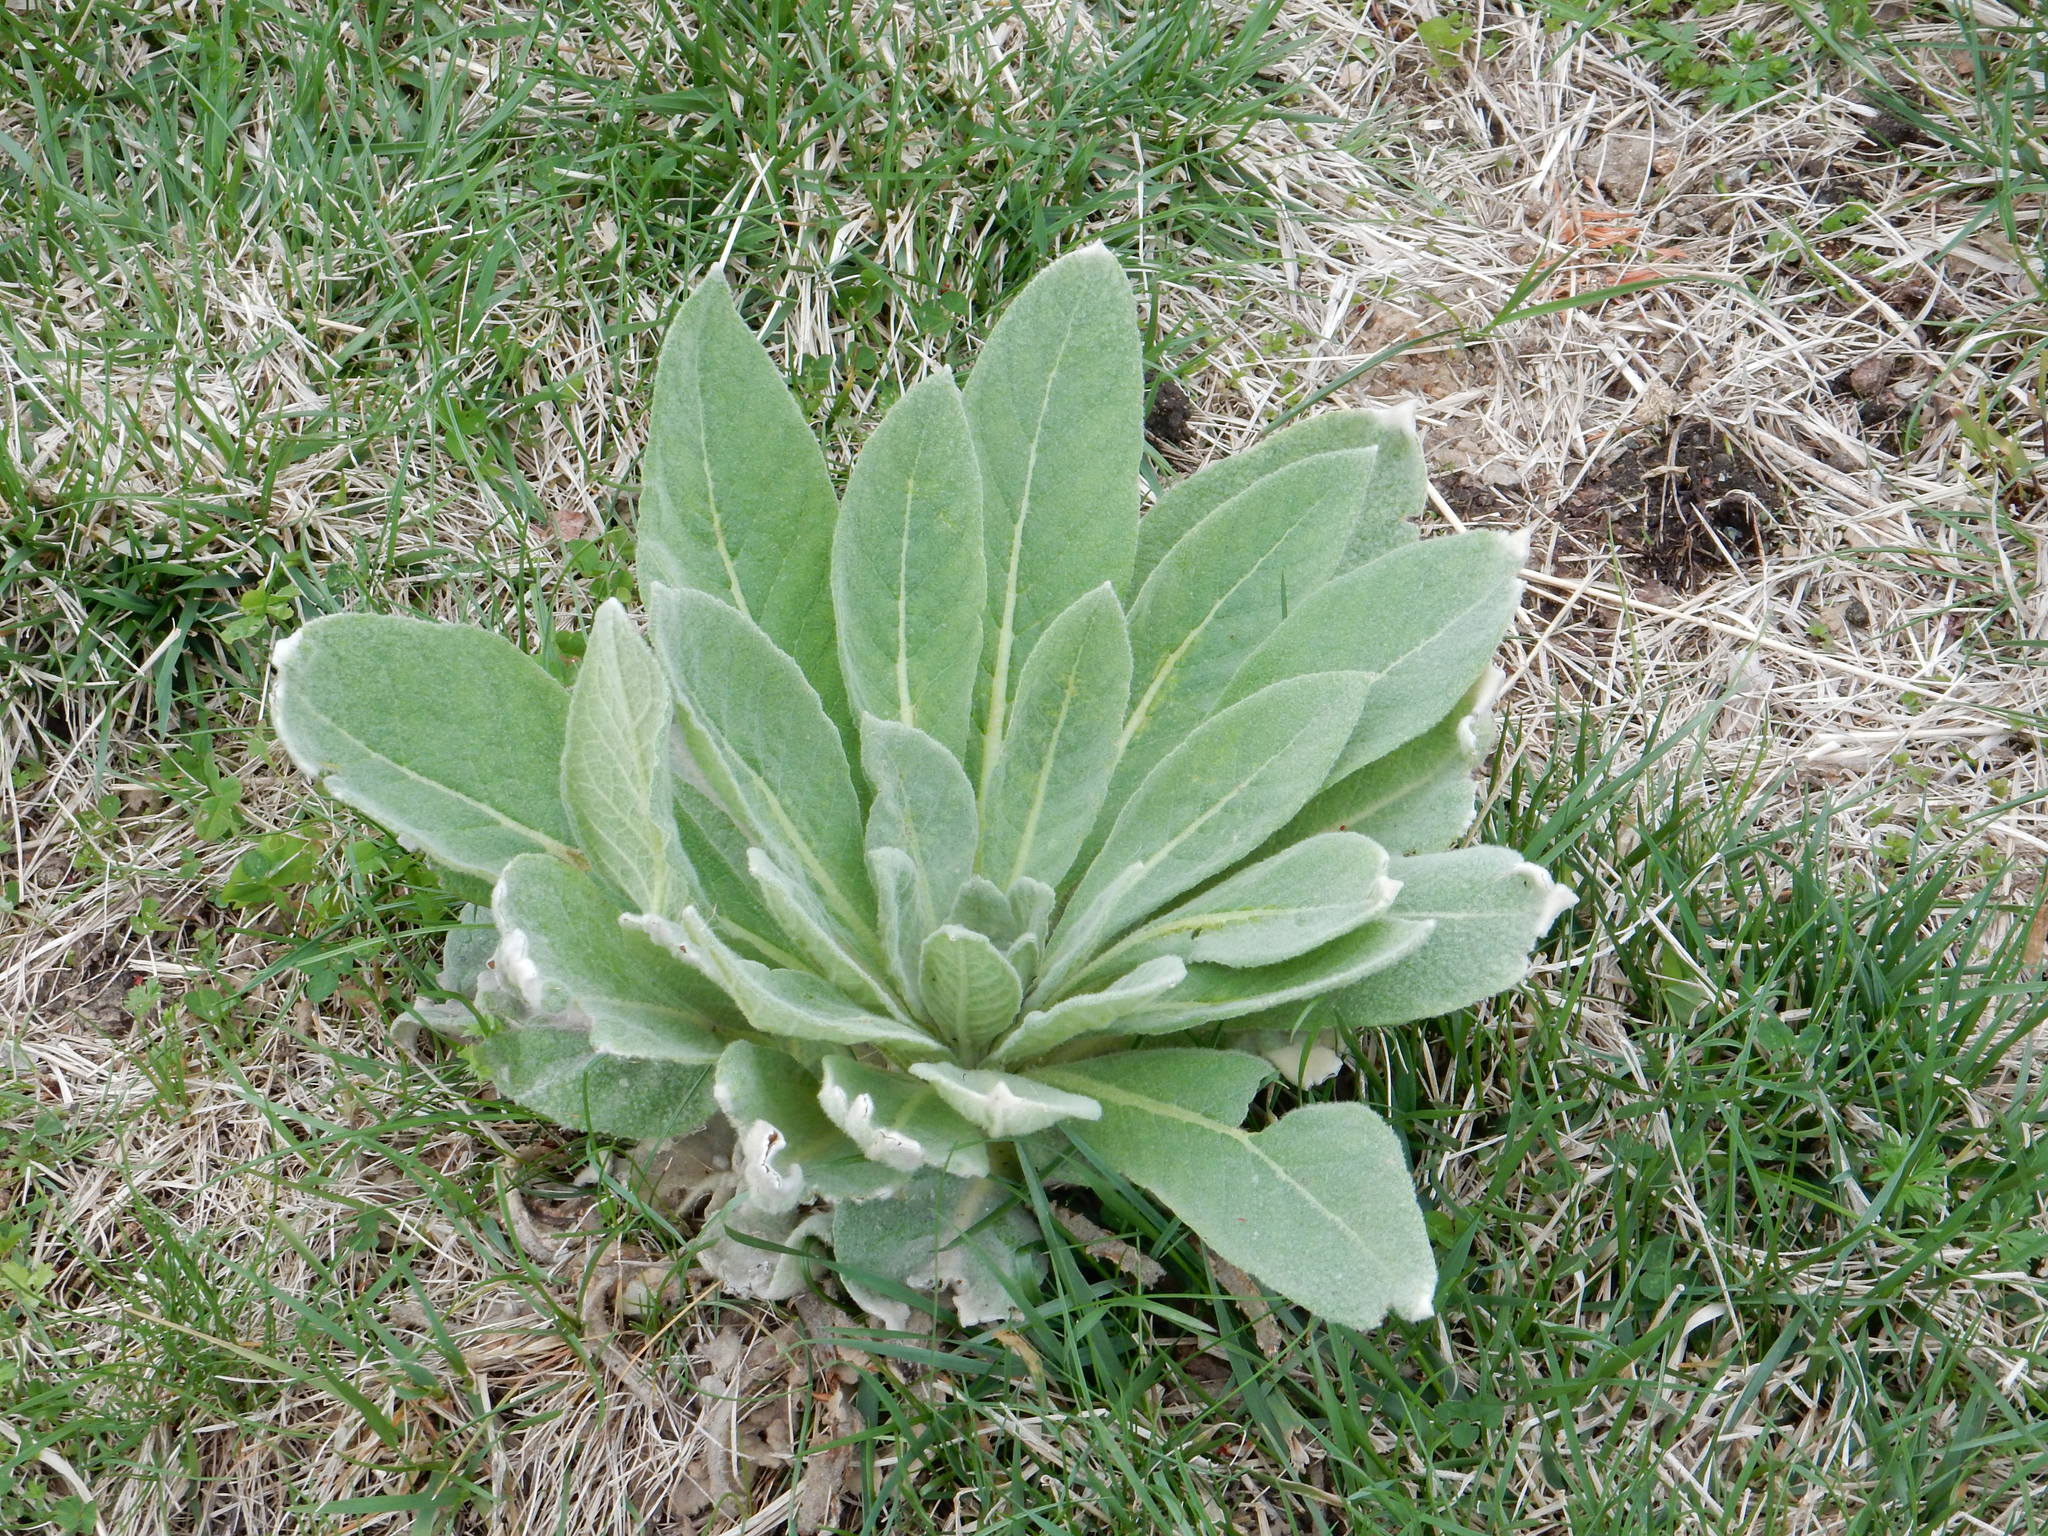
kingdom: Plantae
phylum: Tracheophyta
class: Magnoliopsida
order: Lamiales
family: Scrophulariaceae
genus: Verbascum
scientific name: Verbascum thapsus
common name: Common mullein
